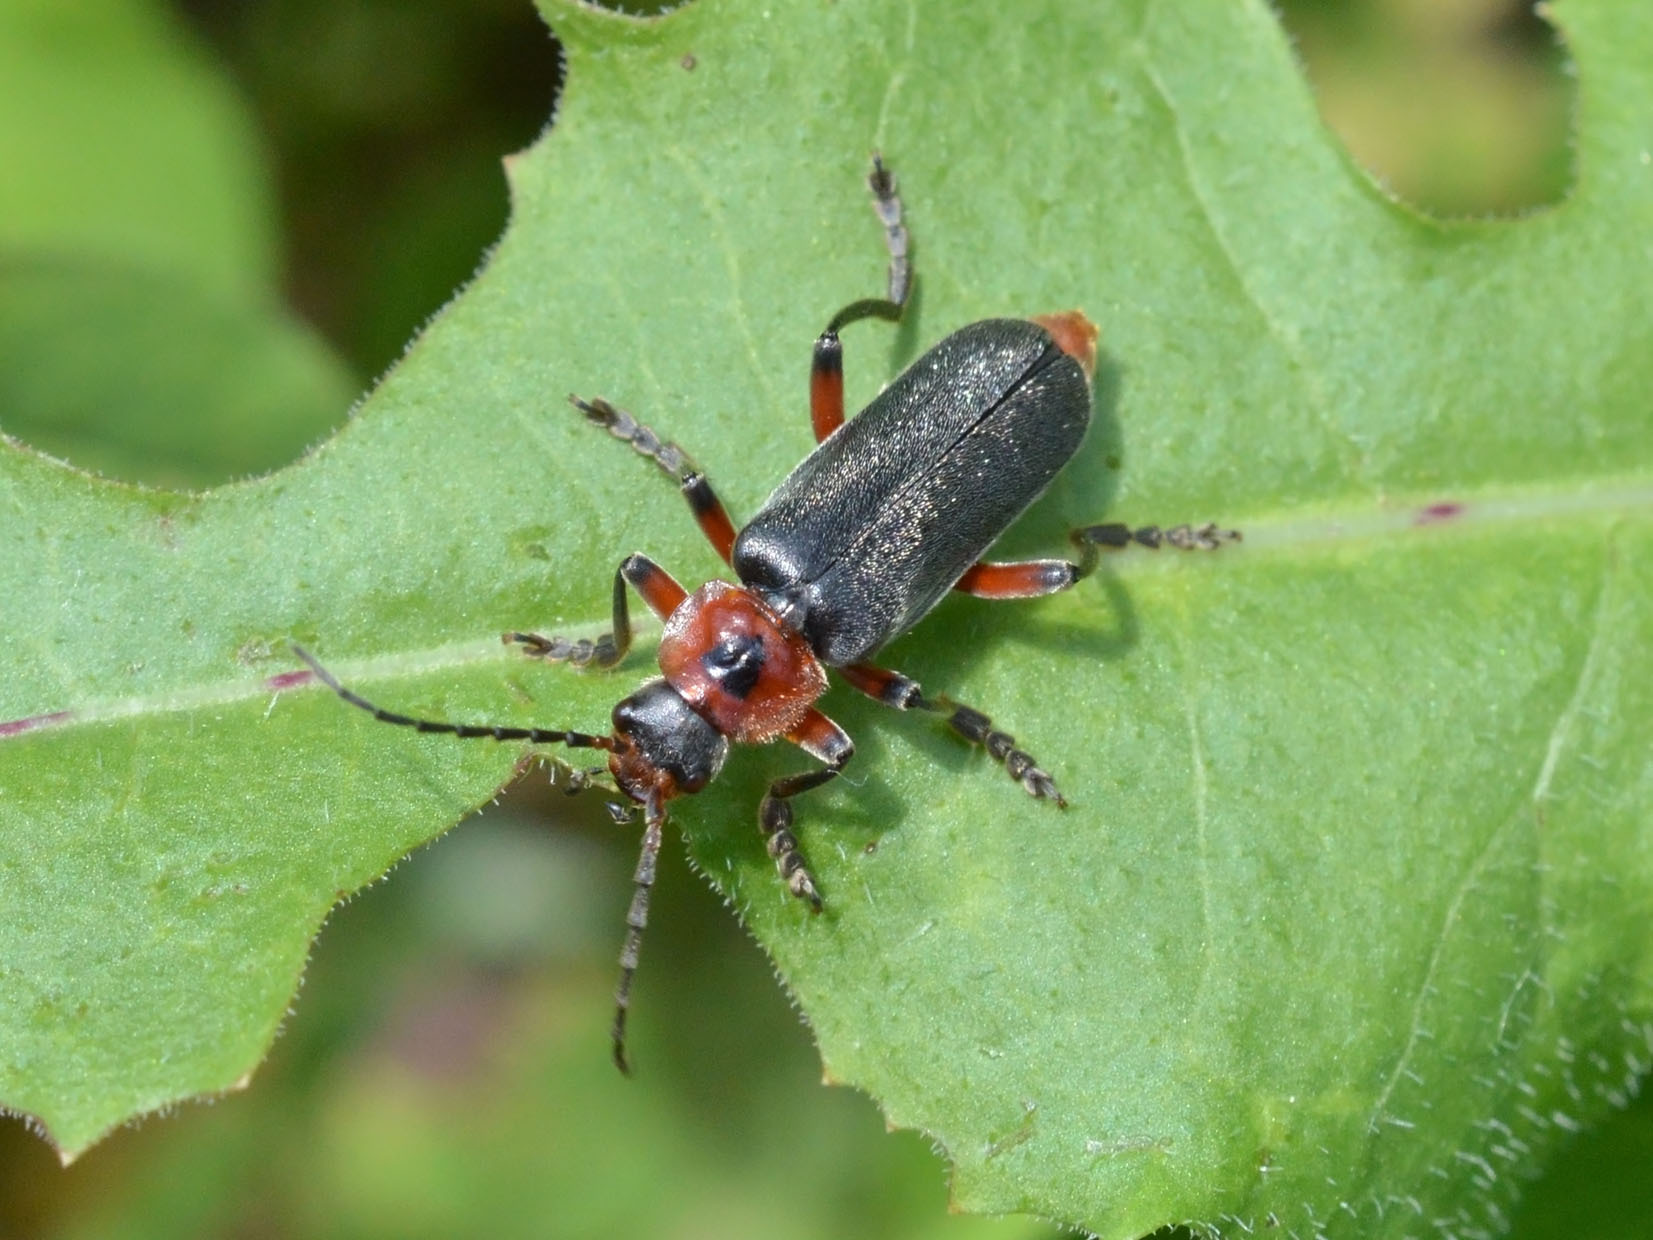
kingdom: Animalia
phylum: Arthropoda
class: Insecta
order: Coleoptera
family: Cantharidae
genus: Cantharis
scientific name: Cantharis rustica
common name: Soldier beetle
